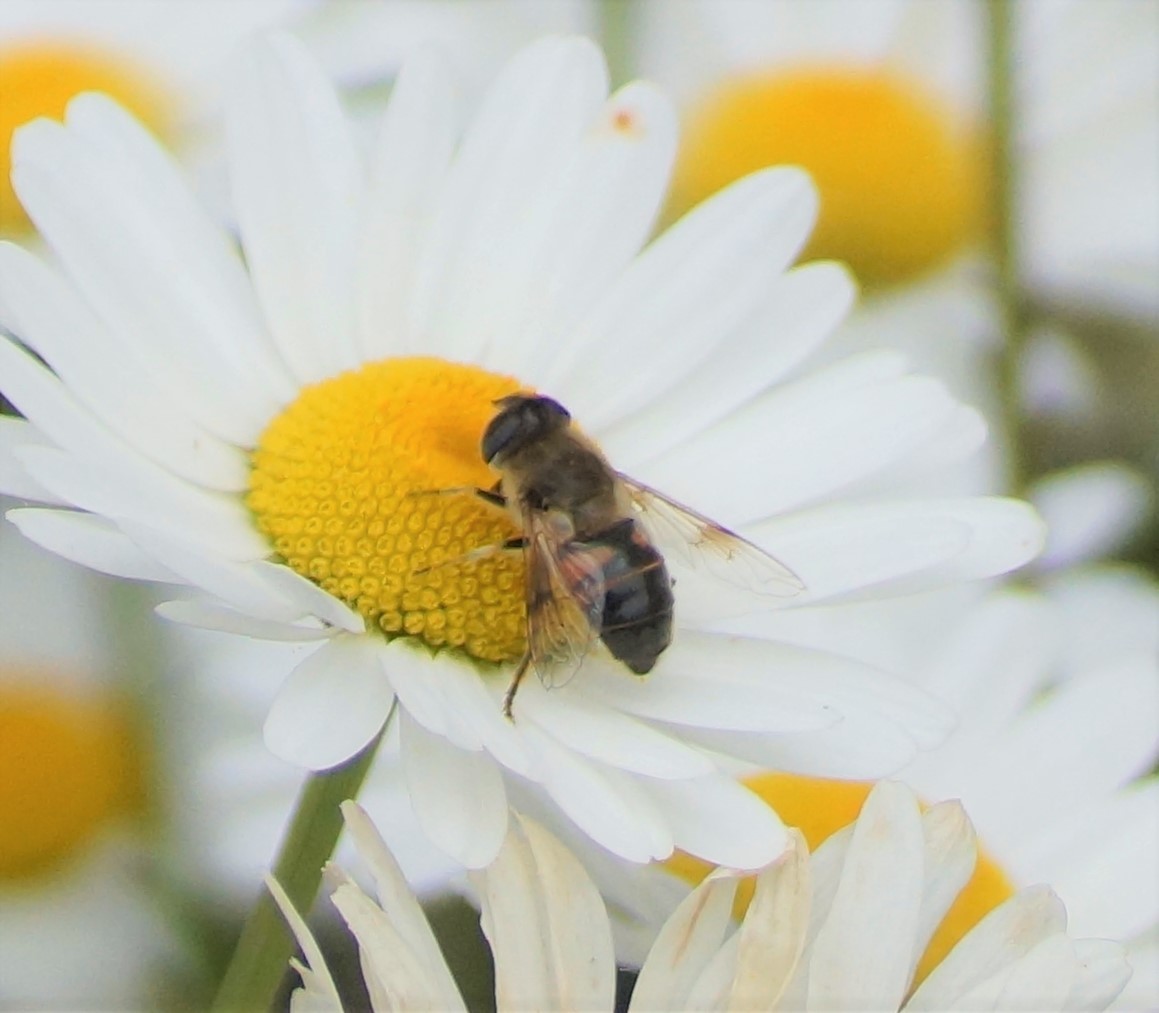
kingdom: Animalia
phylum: Arthropoda
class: Insecta
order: Diptera
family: Syrphidae
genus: Eristalis
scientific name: Eristalis tenax
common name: Drone fly
